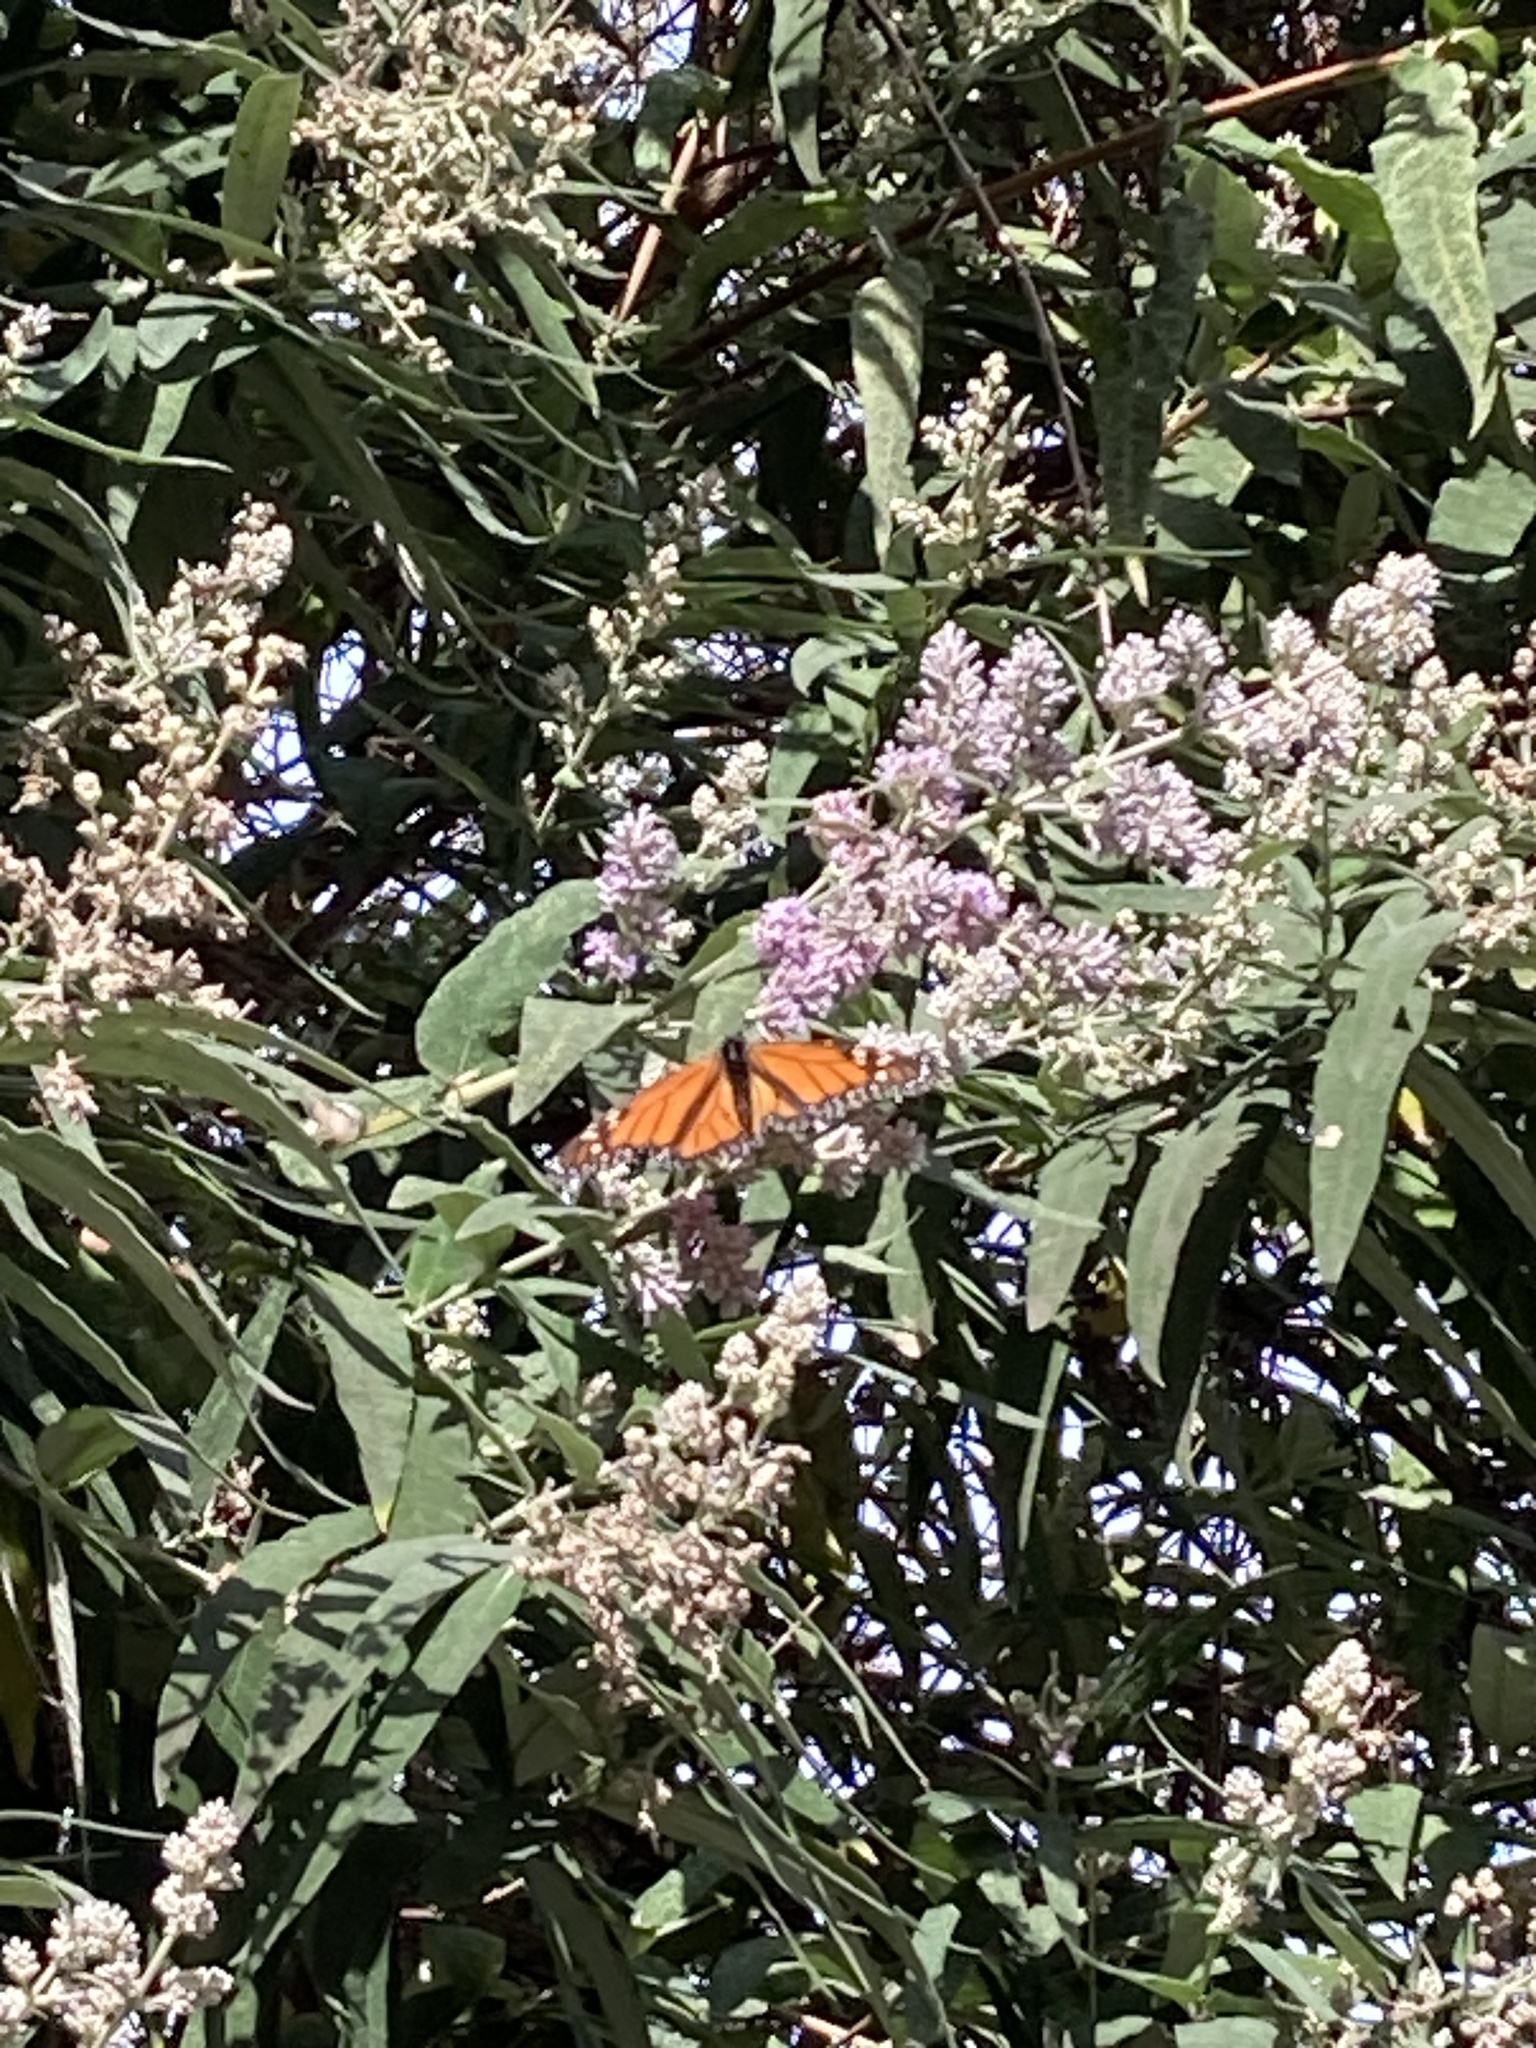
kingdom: Animalia
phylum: Arthropoda
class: Insecta
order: Lepidoptera
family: Nymphalidae
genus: Danaus
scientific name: Danaus plexippus
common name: Monarch
